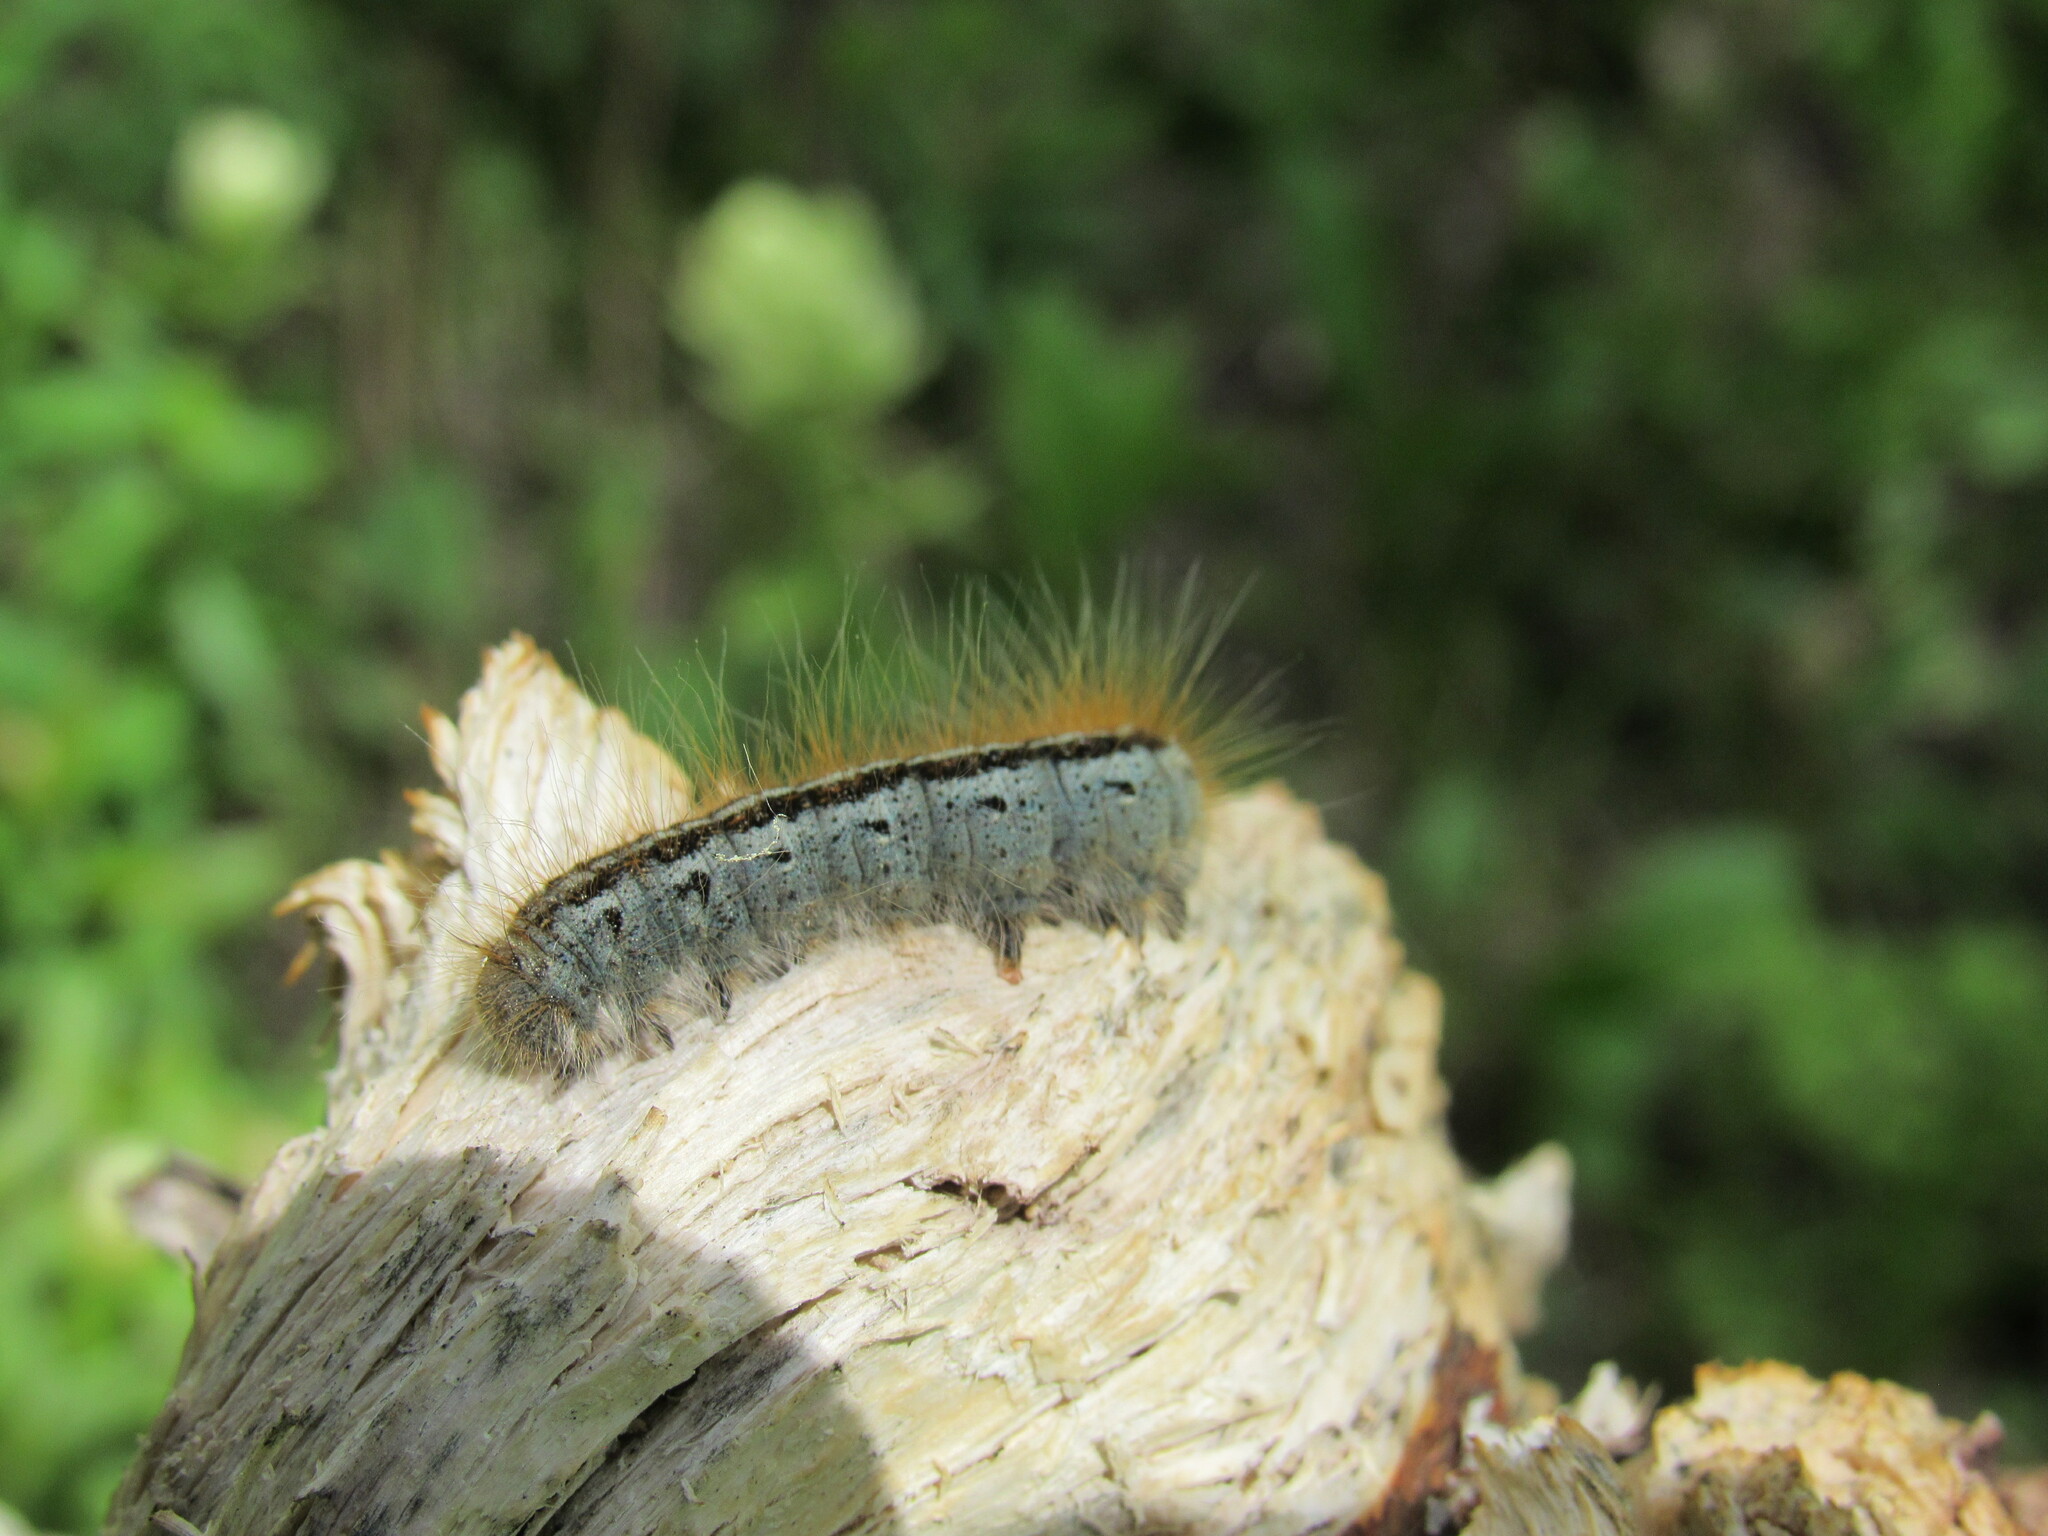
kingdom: Animalia
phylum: Arthropoda
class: Insecta
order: Lepidoptera
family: Lasiocampidae
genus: Malacosoma
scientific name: Malacosoma californica
